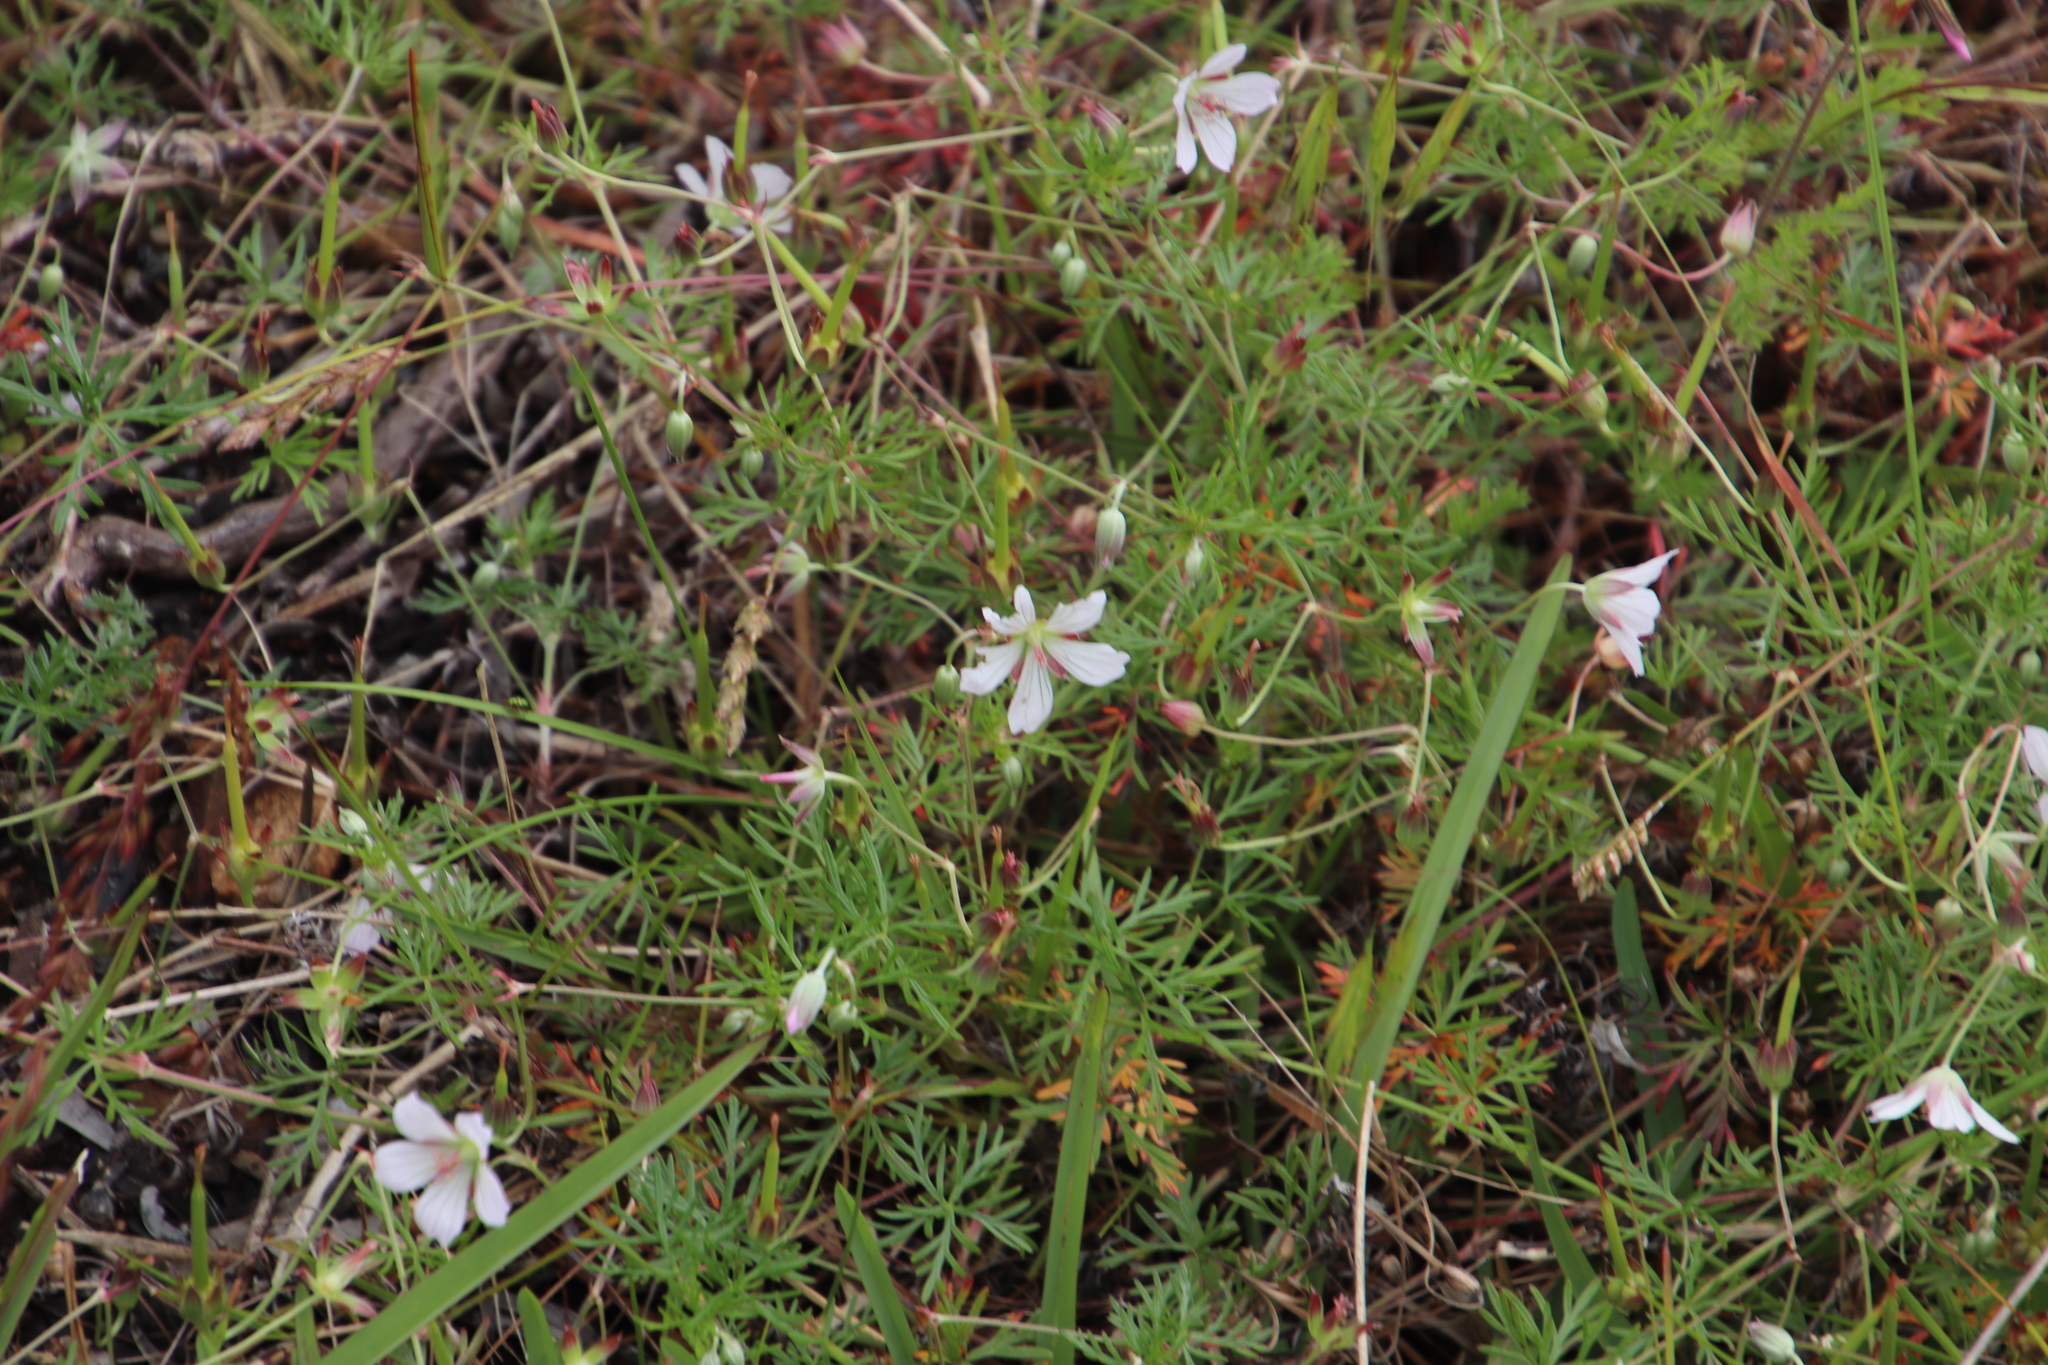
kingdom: Plantae
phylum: Tracheophyta
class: Magnoliopsida
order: Geraniales
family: Geraniaceae
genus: Geranium
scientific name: Geranium incanum
